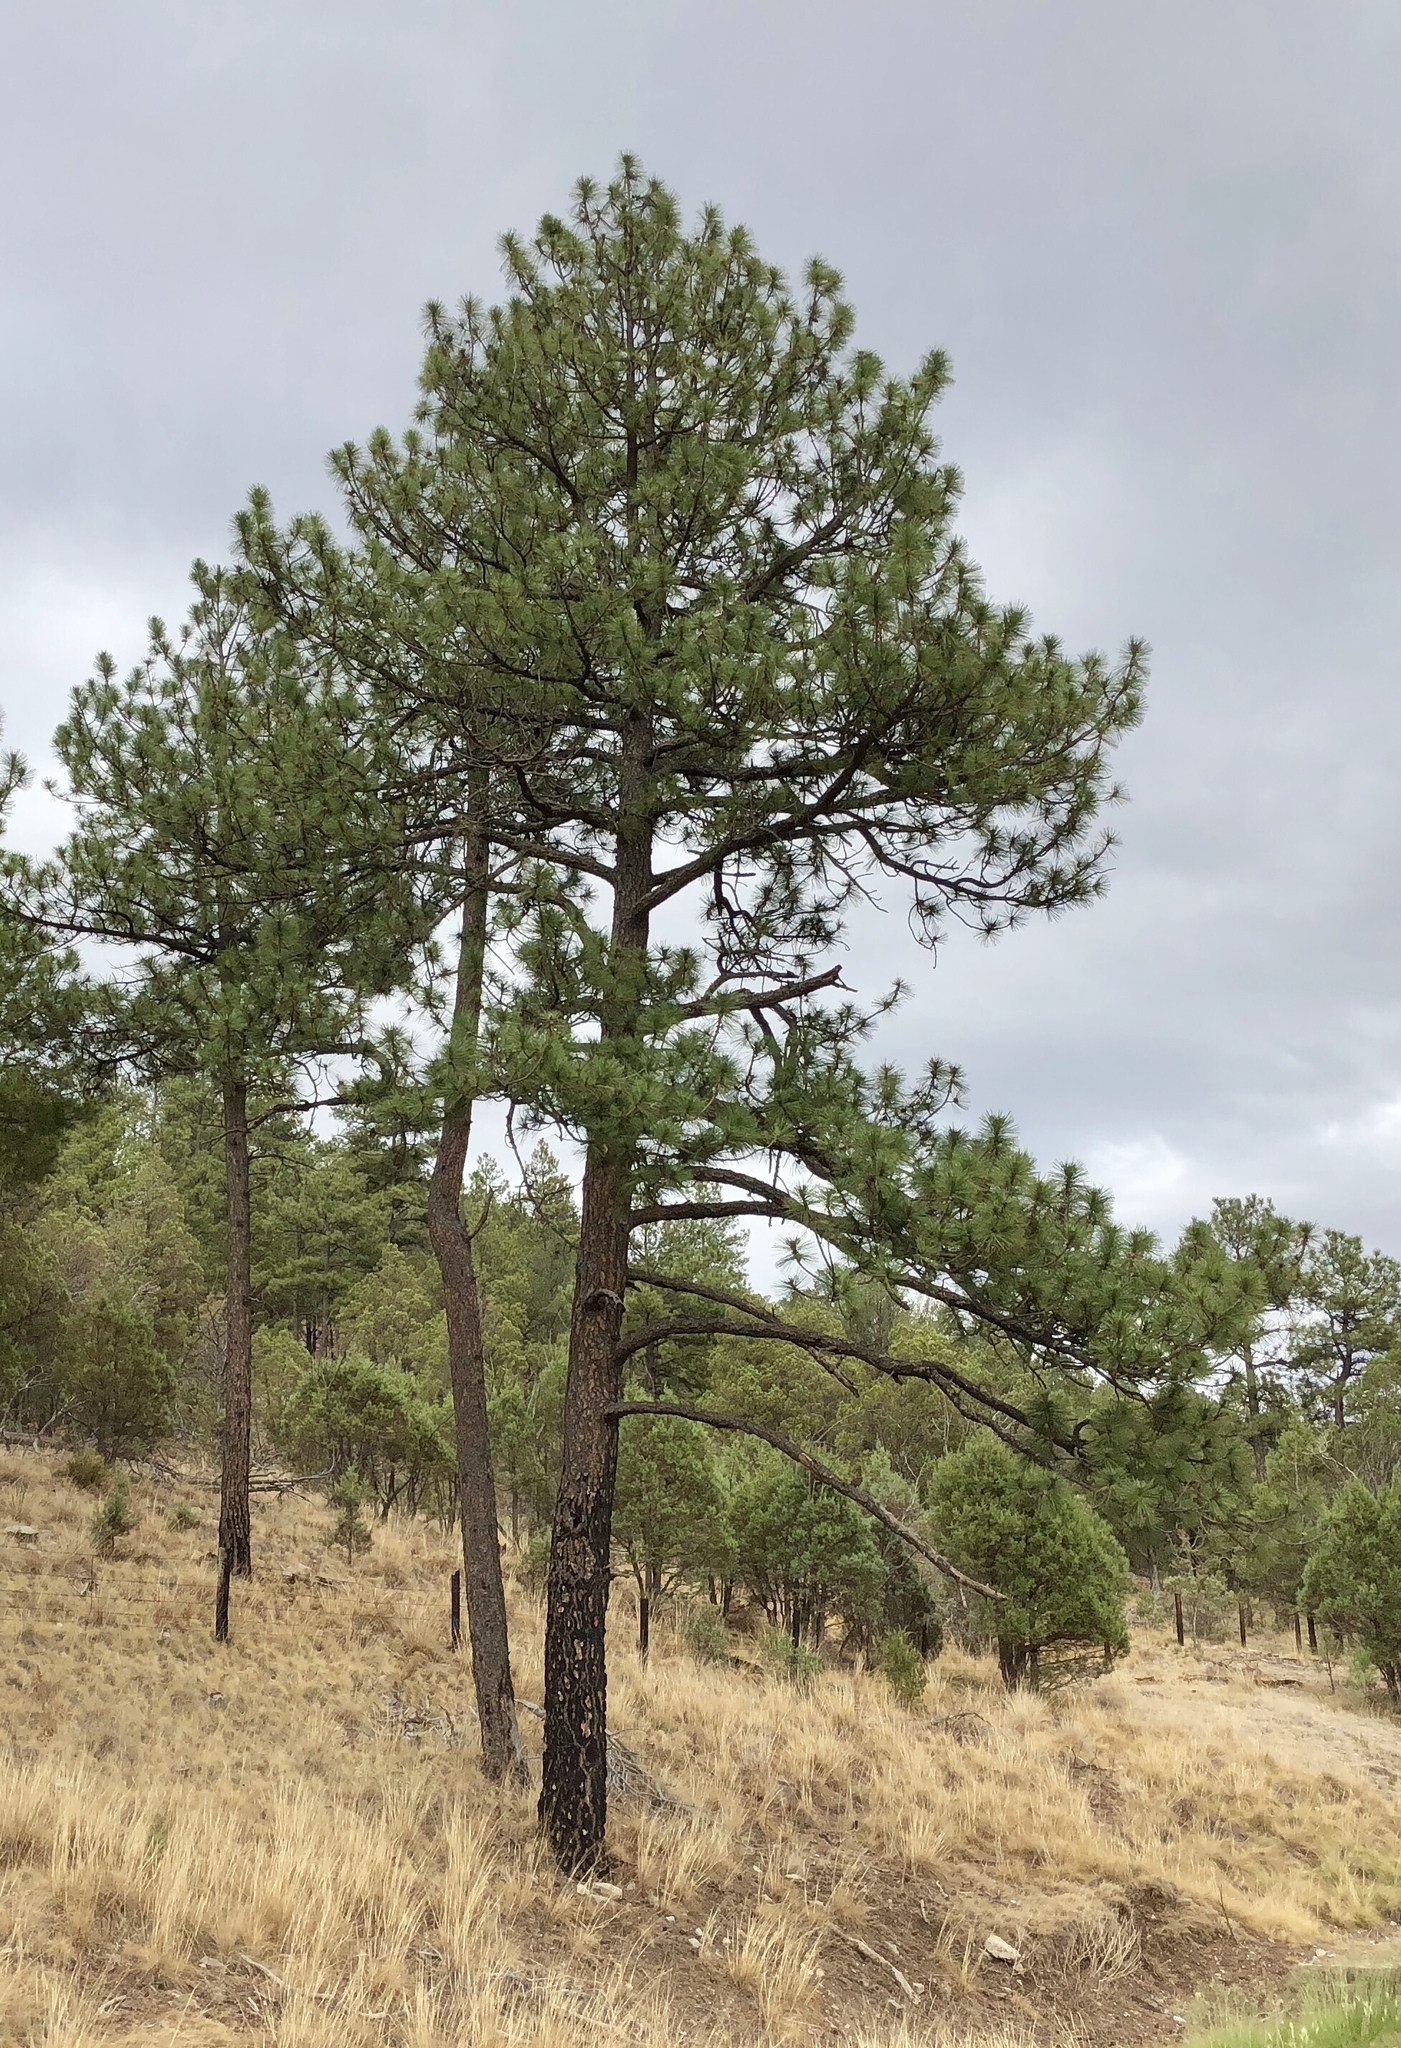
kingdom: Plantae
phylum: Tracheophyta
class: Pinopsida
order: Pinales
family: Pinaceae
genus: Pinus
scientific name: Pinus ponderosa
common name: Western yellow-pine
